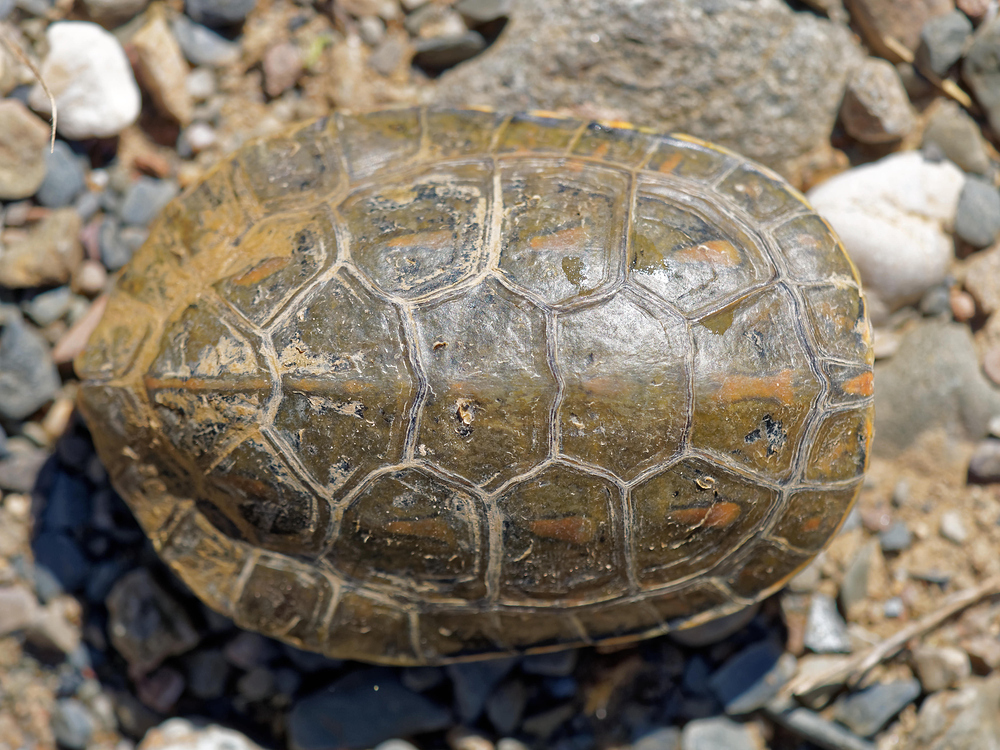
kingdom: Animalia
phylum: Chordata
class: Testudines
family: Geoemydidae
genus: Mauremys
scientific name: Mauremys leprosa
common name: Mediterranean pond turtle
